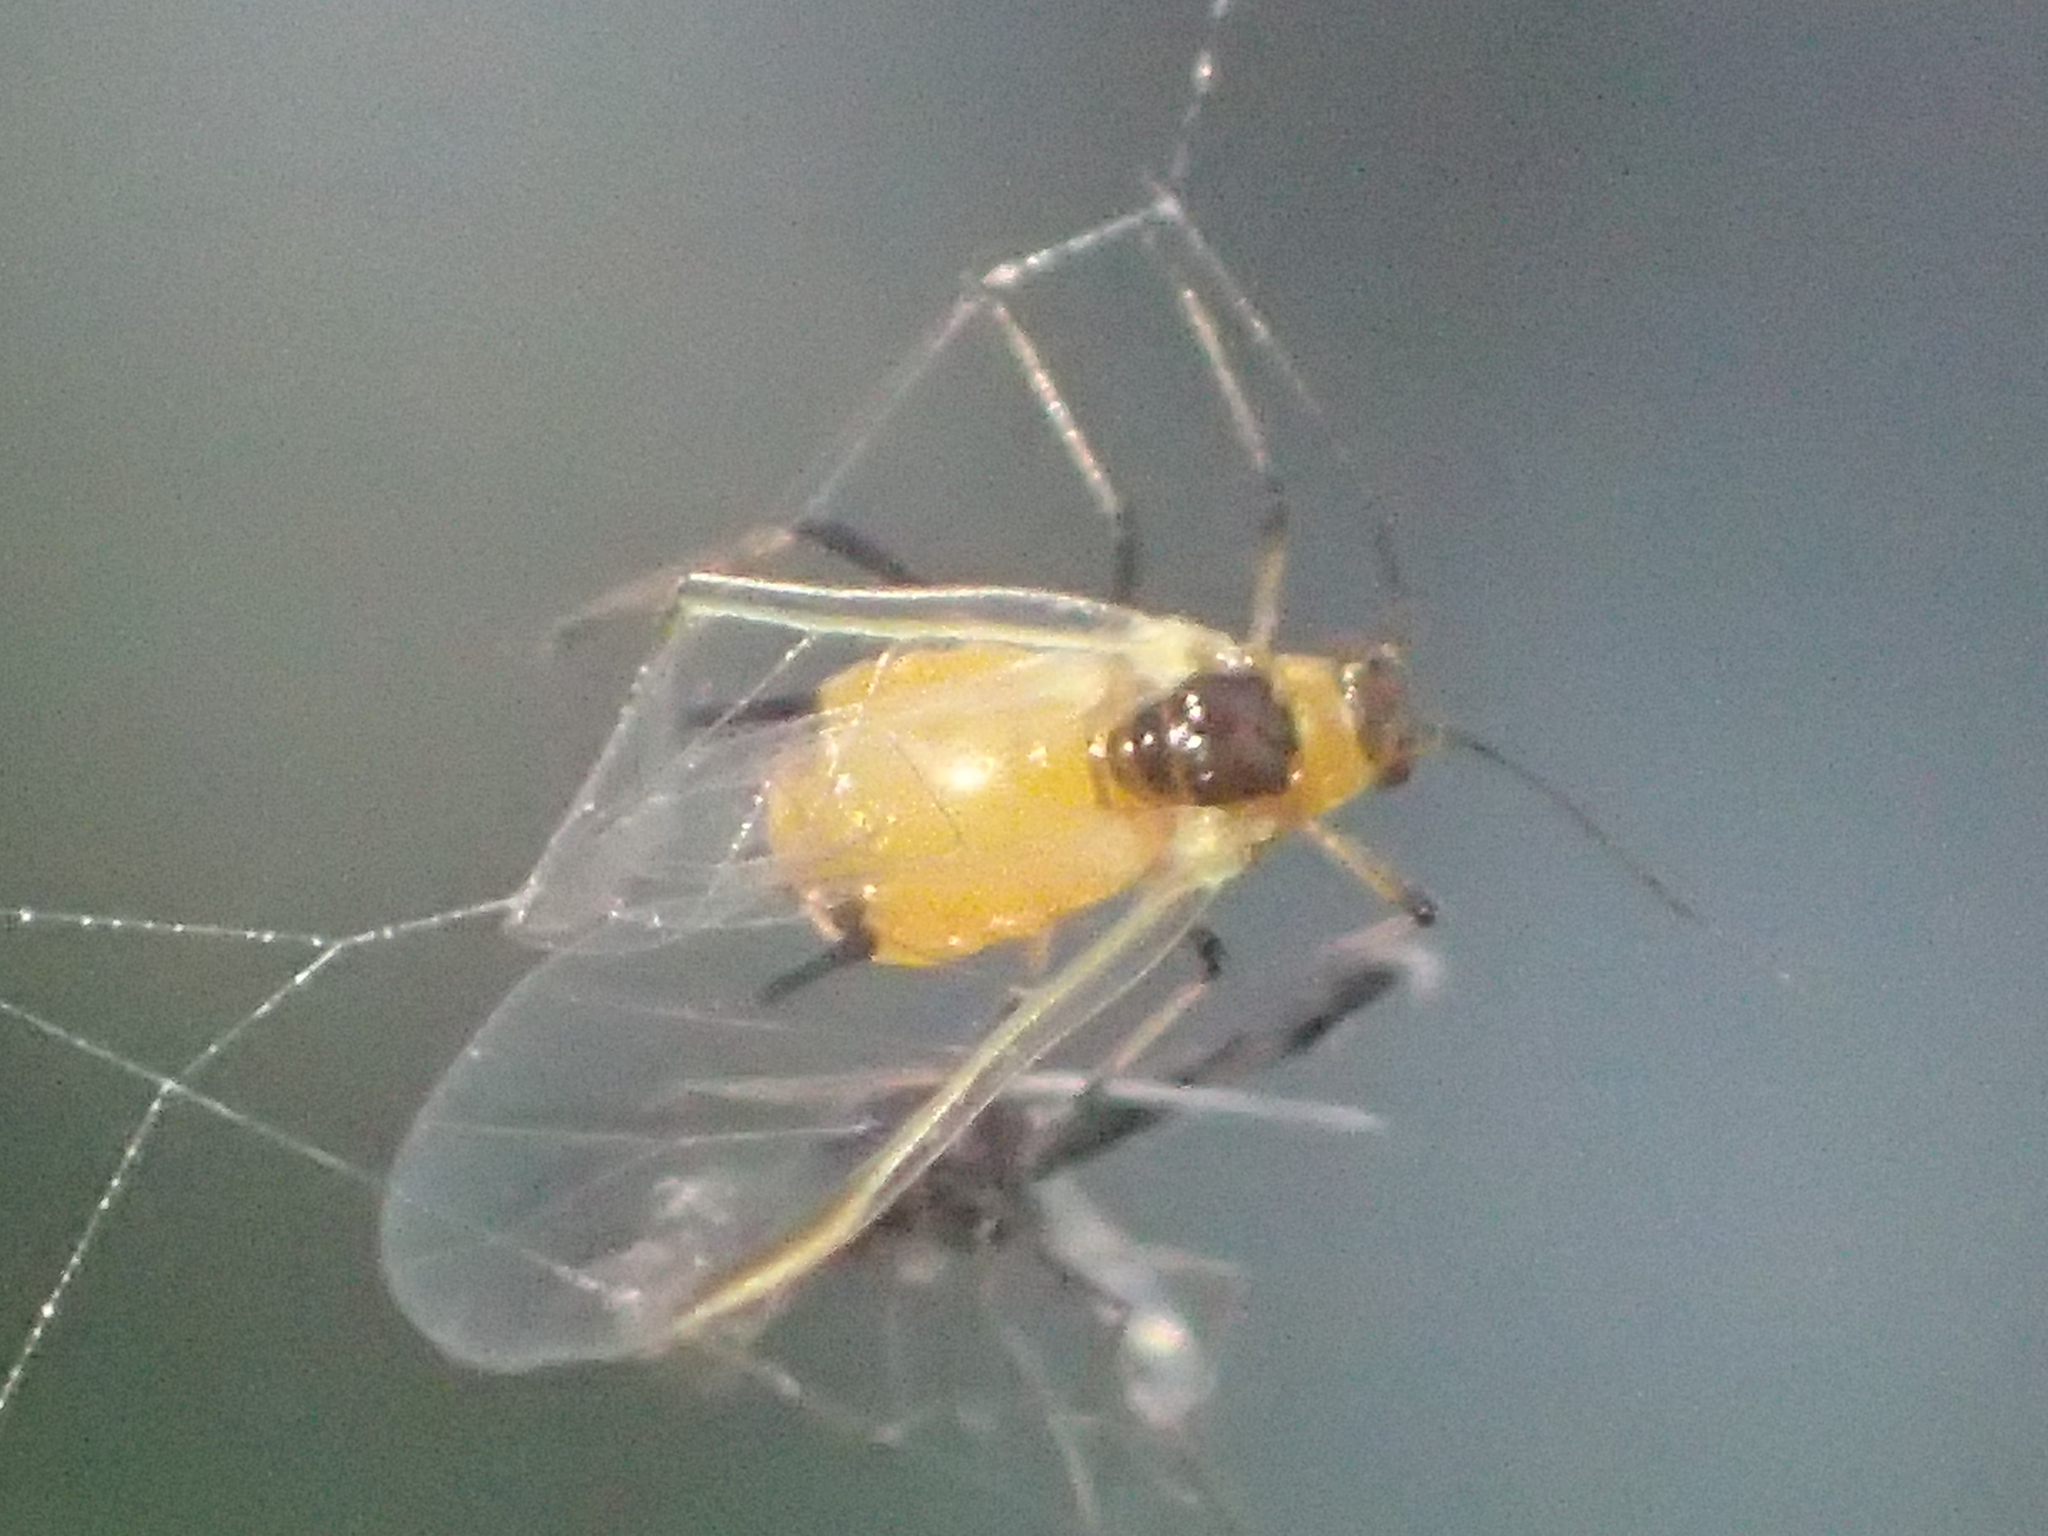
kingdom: Animalia
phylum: Arthropoda
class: Insecta
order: Hemiptera
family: Aphididae
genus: Aphis
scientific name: Aphis nerii
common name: Oleander aphid
